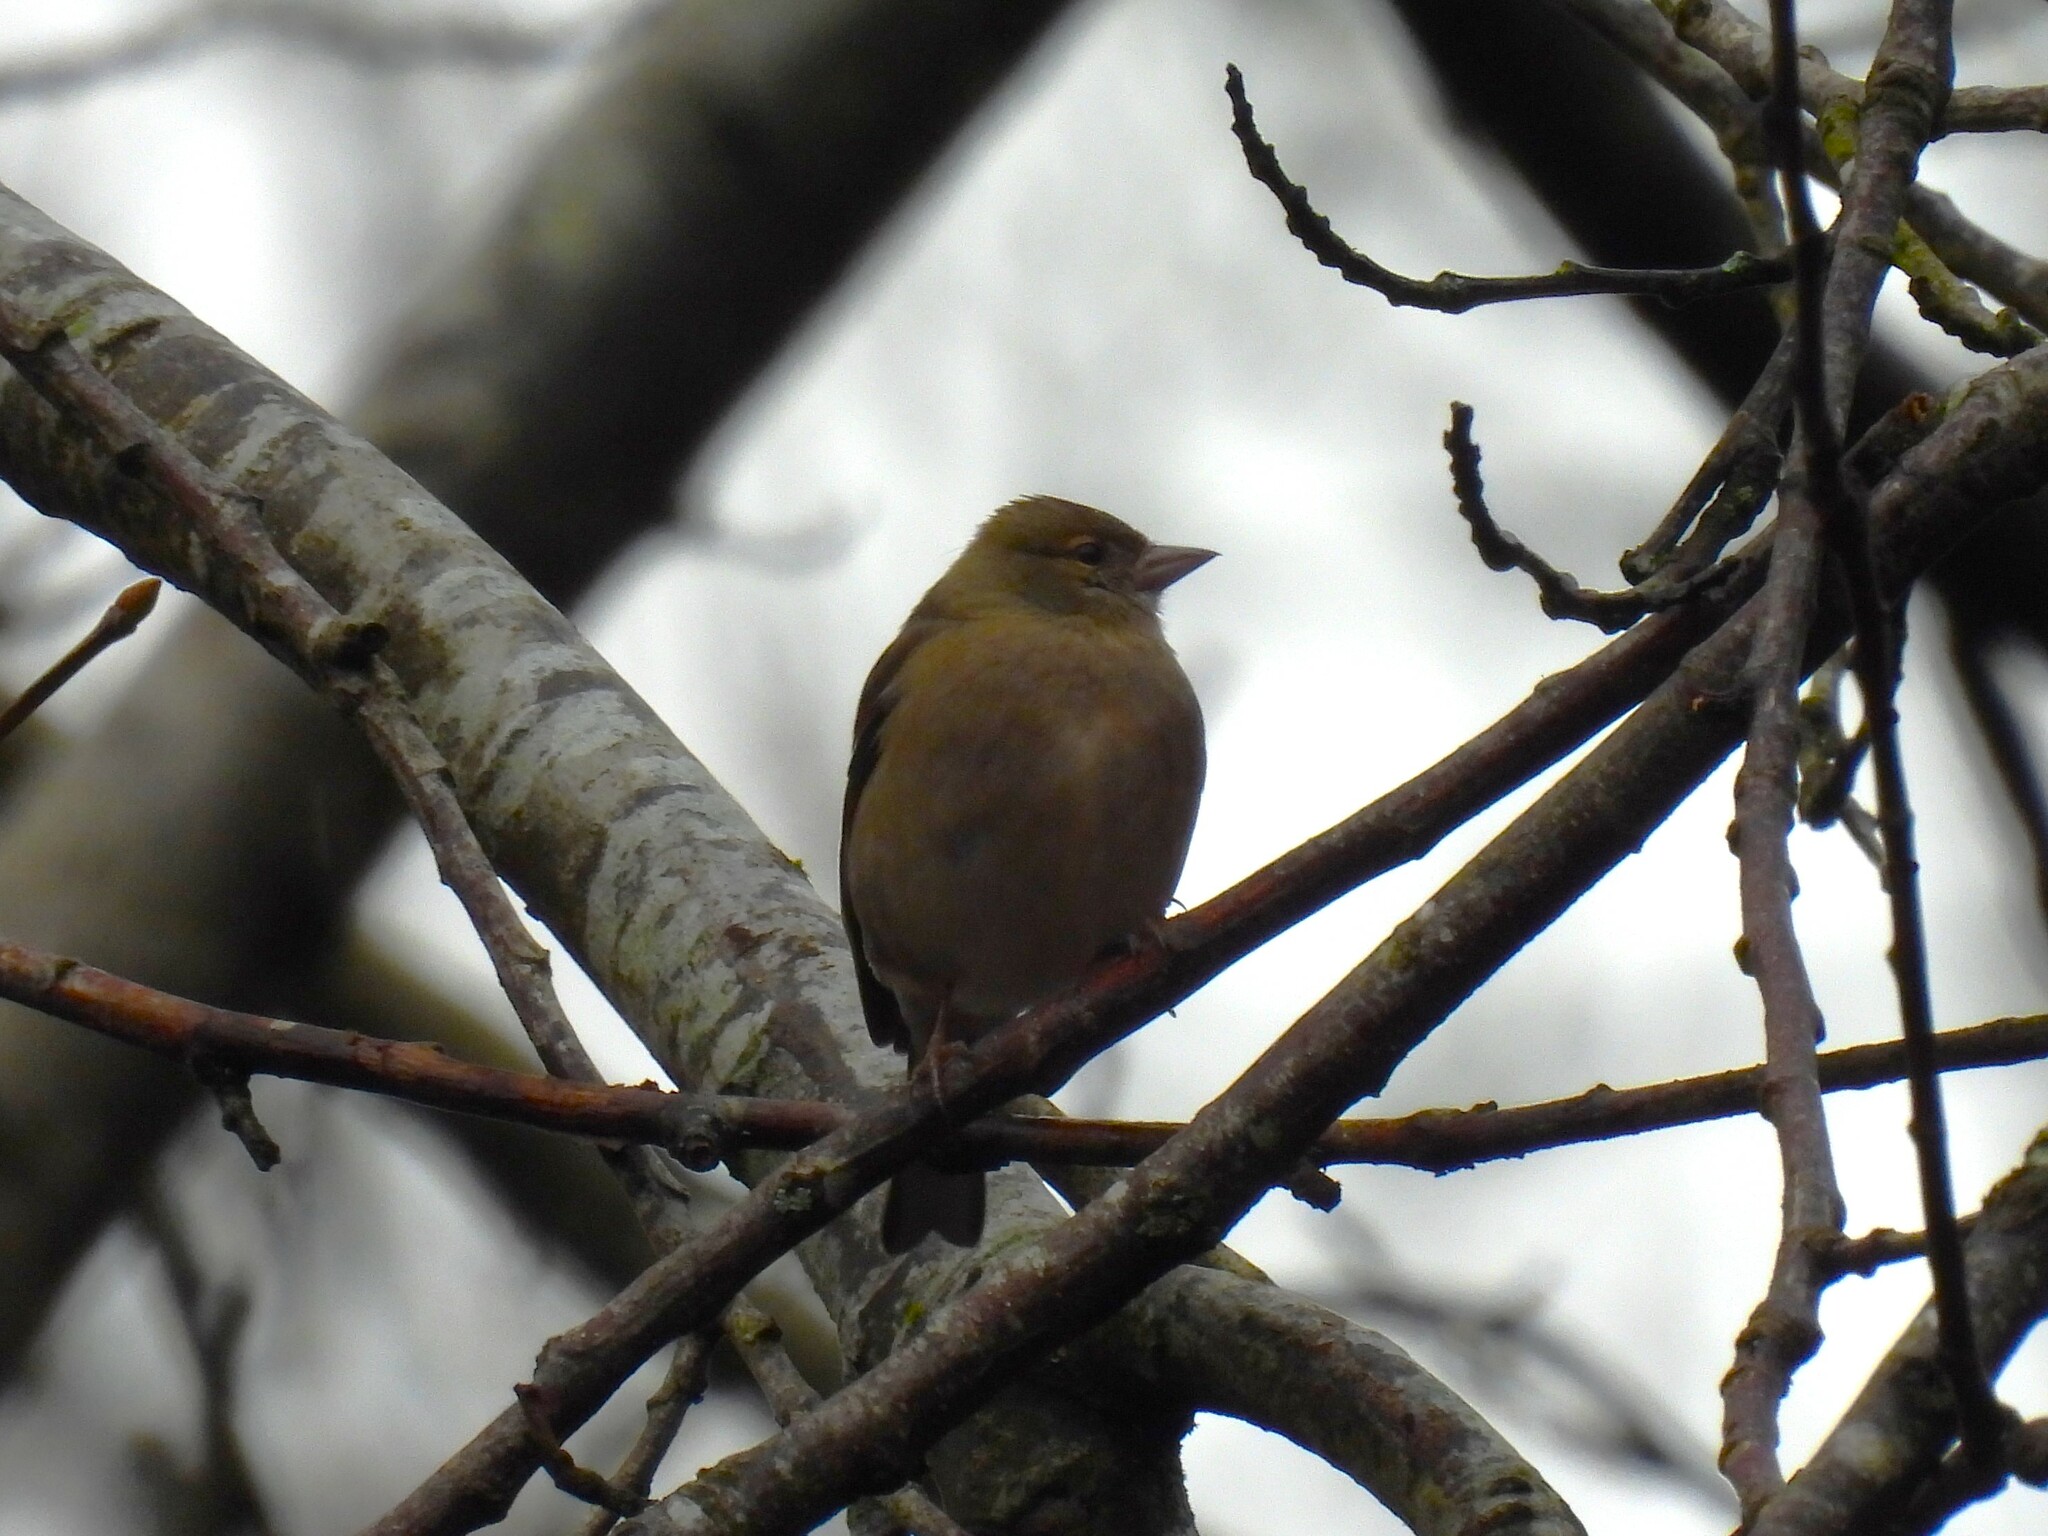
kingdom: Animalia
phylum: Chordata
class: Aves
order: Passeriformes
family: Fringillidae
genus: Fringilla
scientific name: Fringilla coelebs
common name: Common chaffinch
